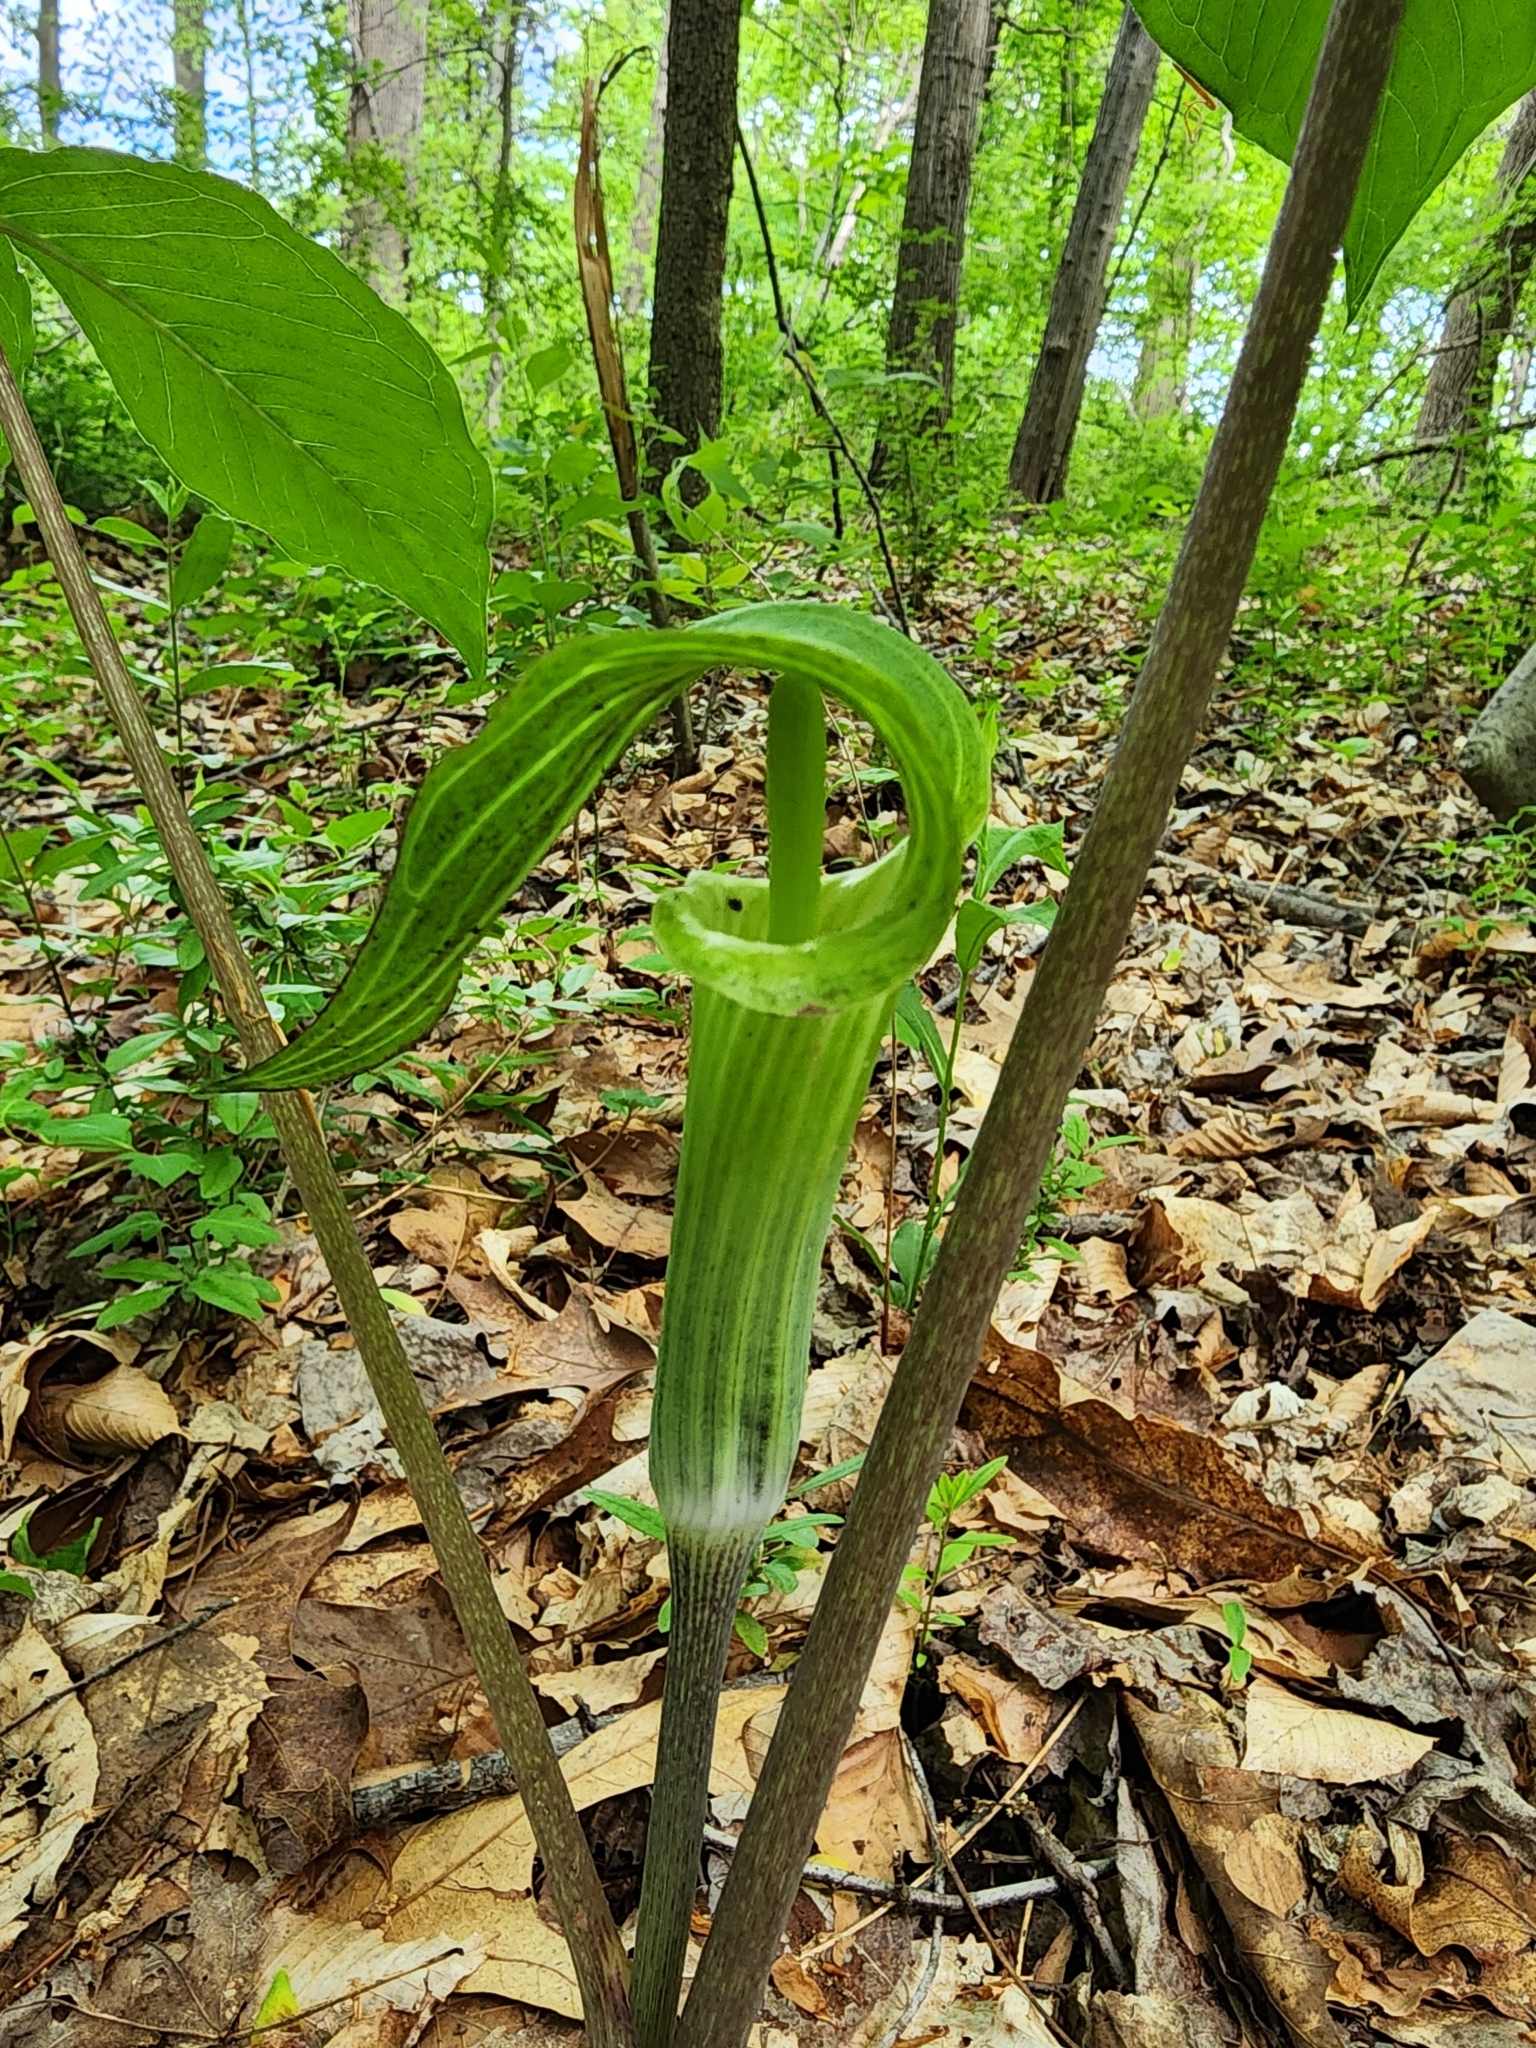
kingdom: Plantae
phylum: Tracheophyta
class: Liliopsida
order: Alismatales
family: Araceae
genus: Arisaema
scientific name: Arisaema triphyllum
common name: Jack-in-the-pulpit
